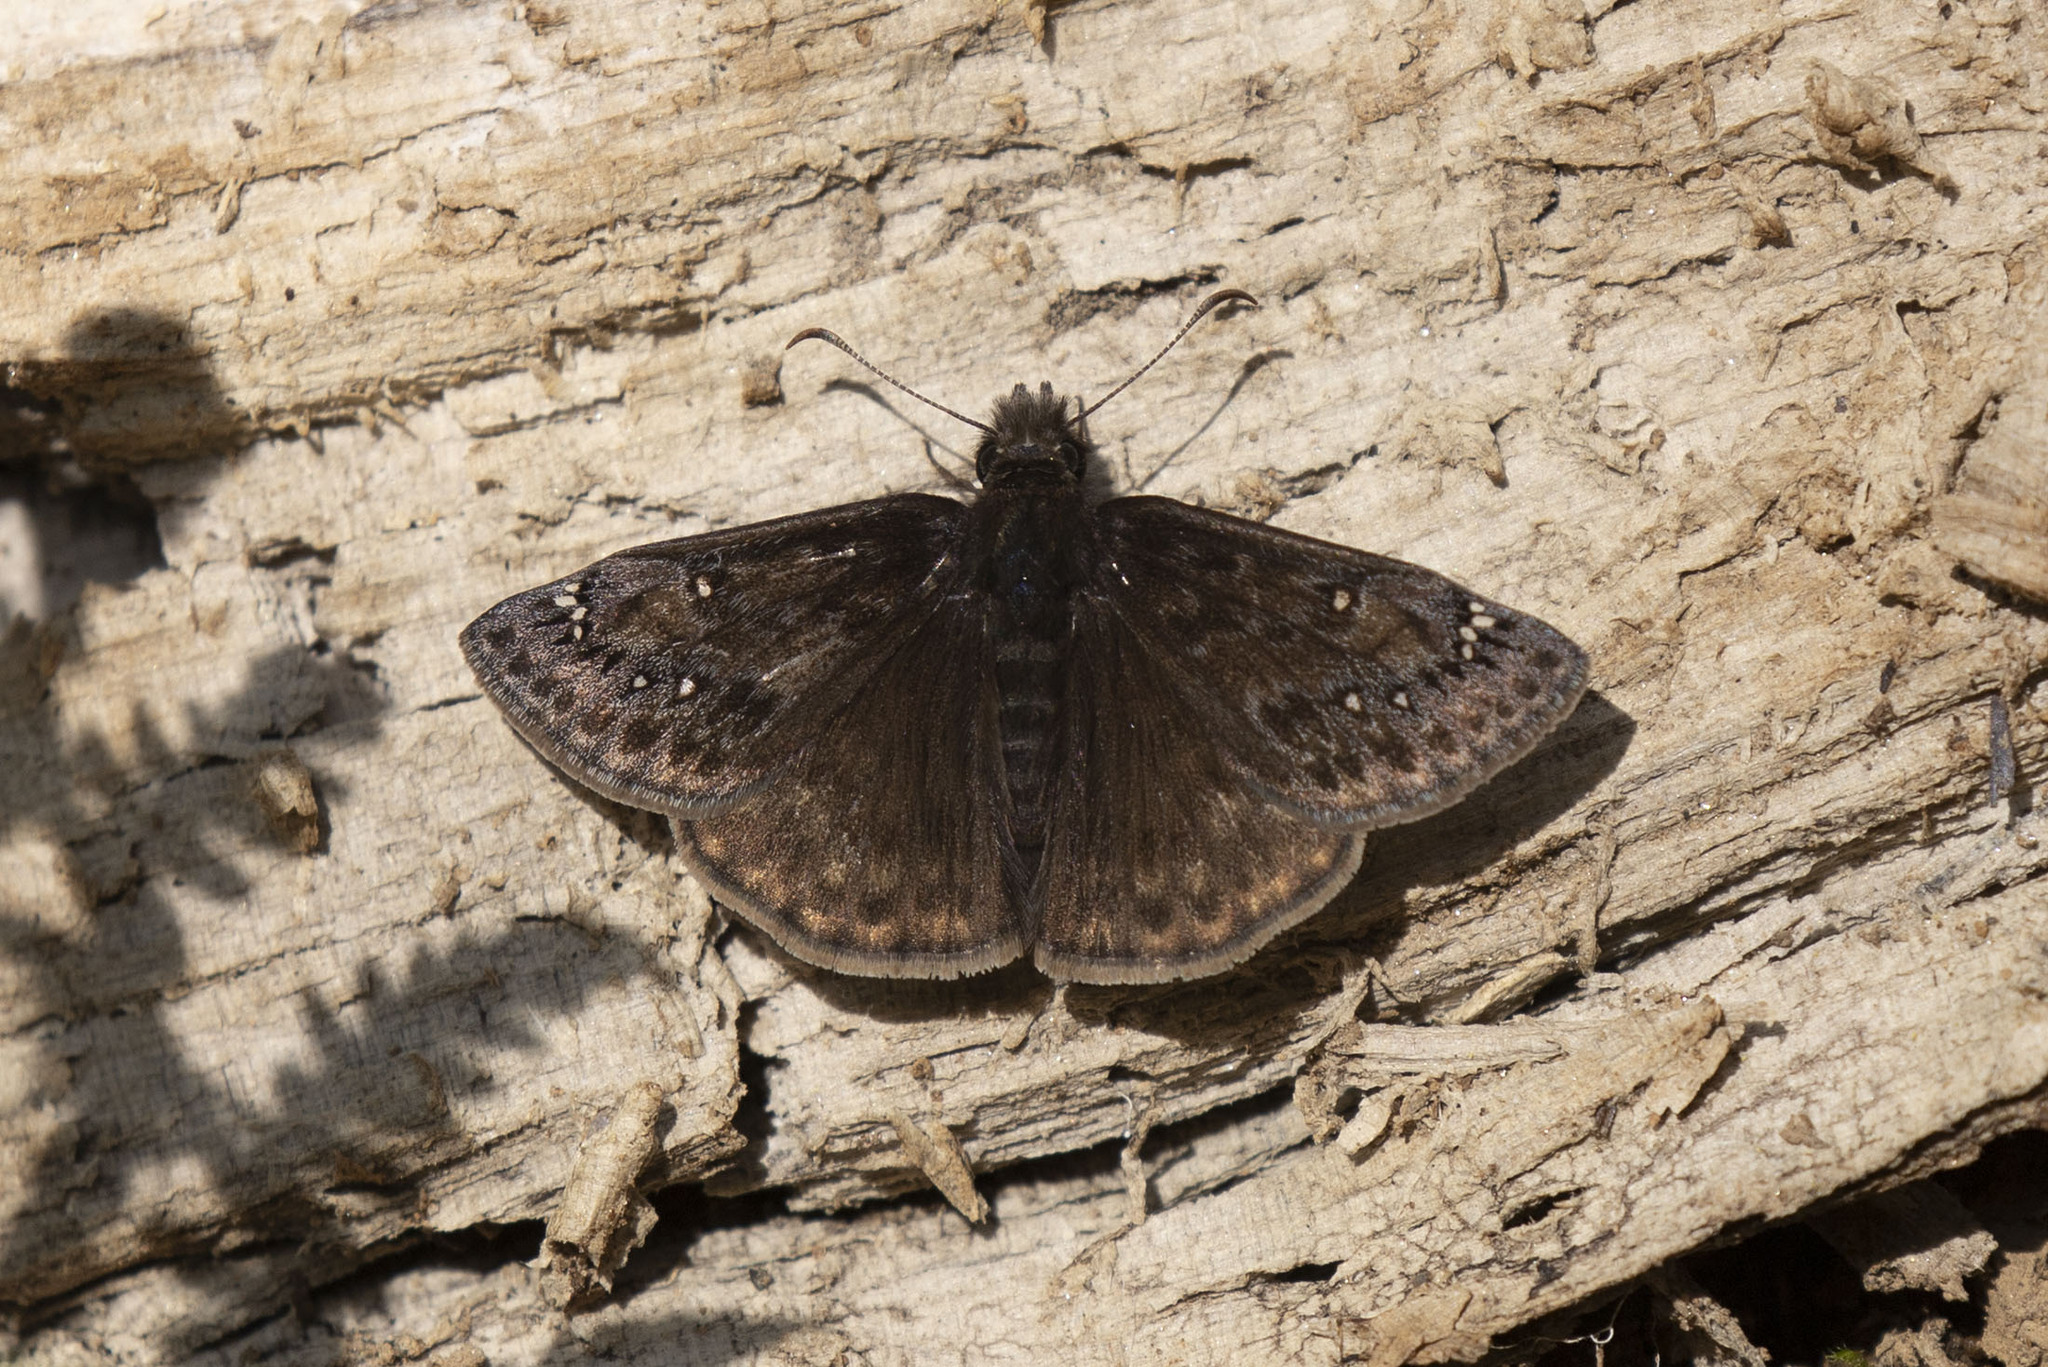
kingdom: Animalia
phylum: Arthropoda
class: Insecta
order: Lepidoptera
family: Hesperiidae
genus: Erynnis
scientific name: Erynnis juvenalis
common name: Juvenal's duskywing
